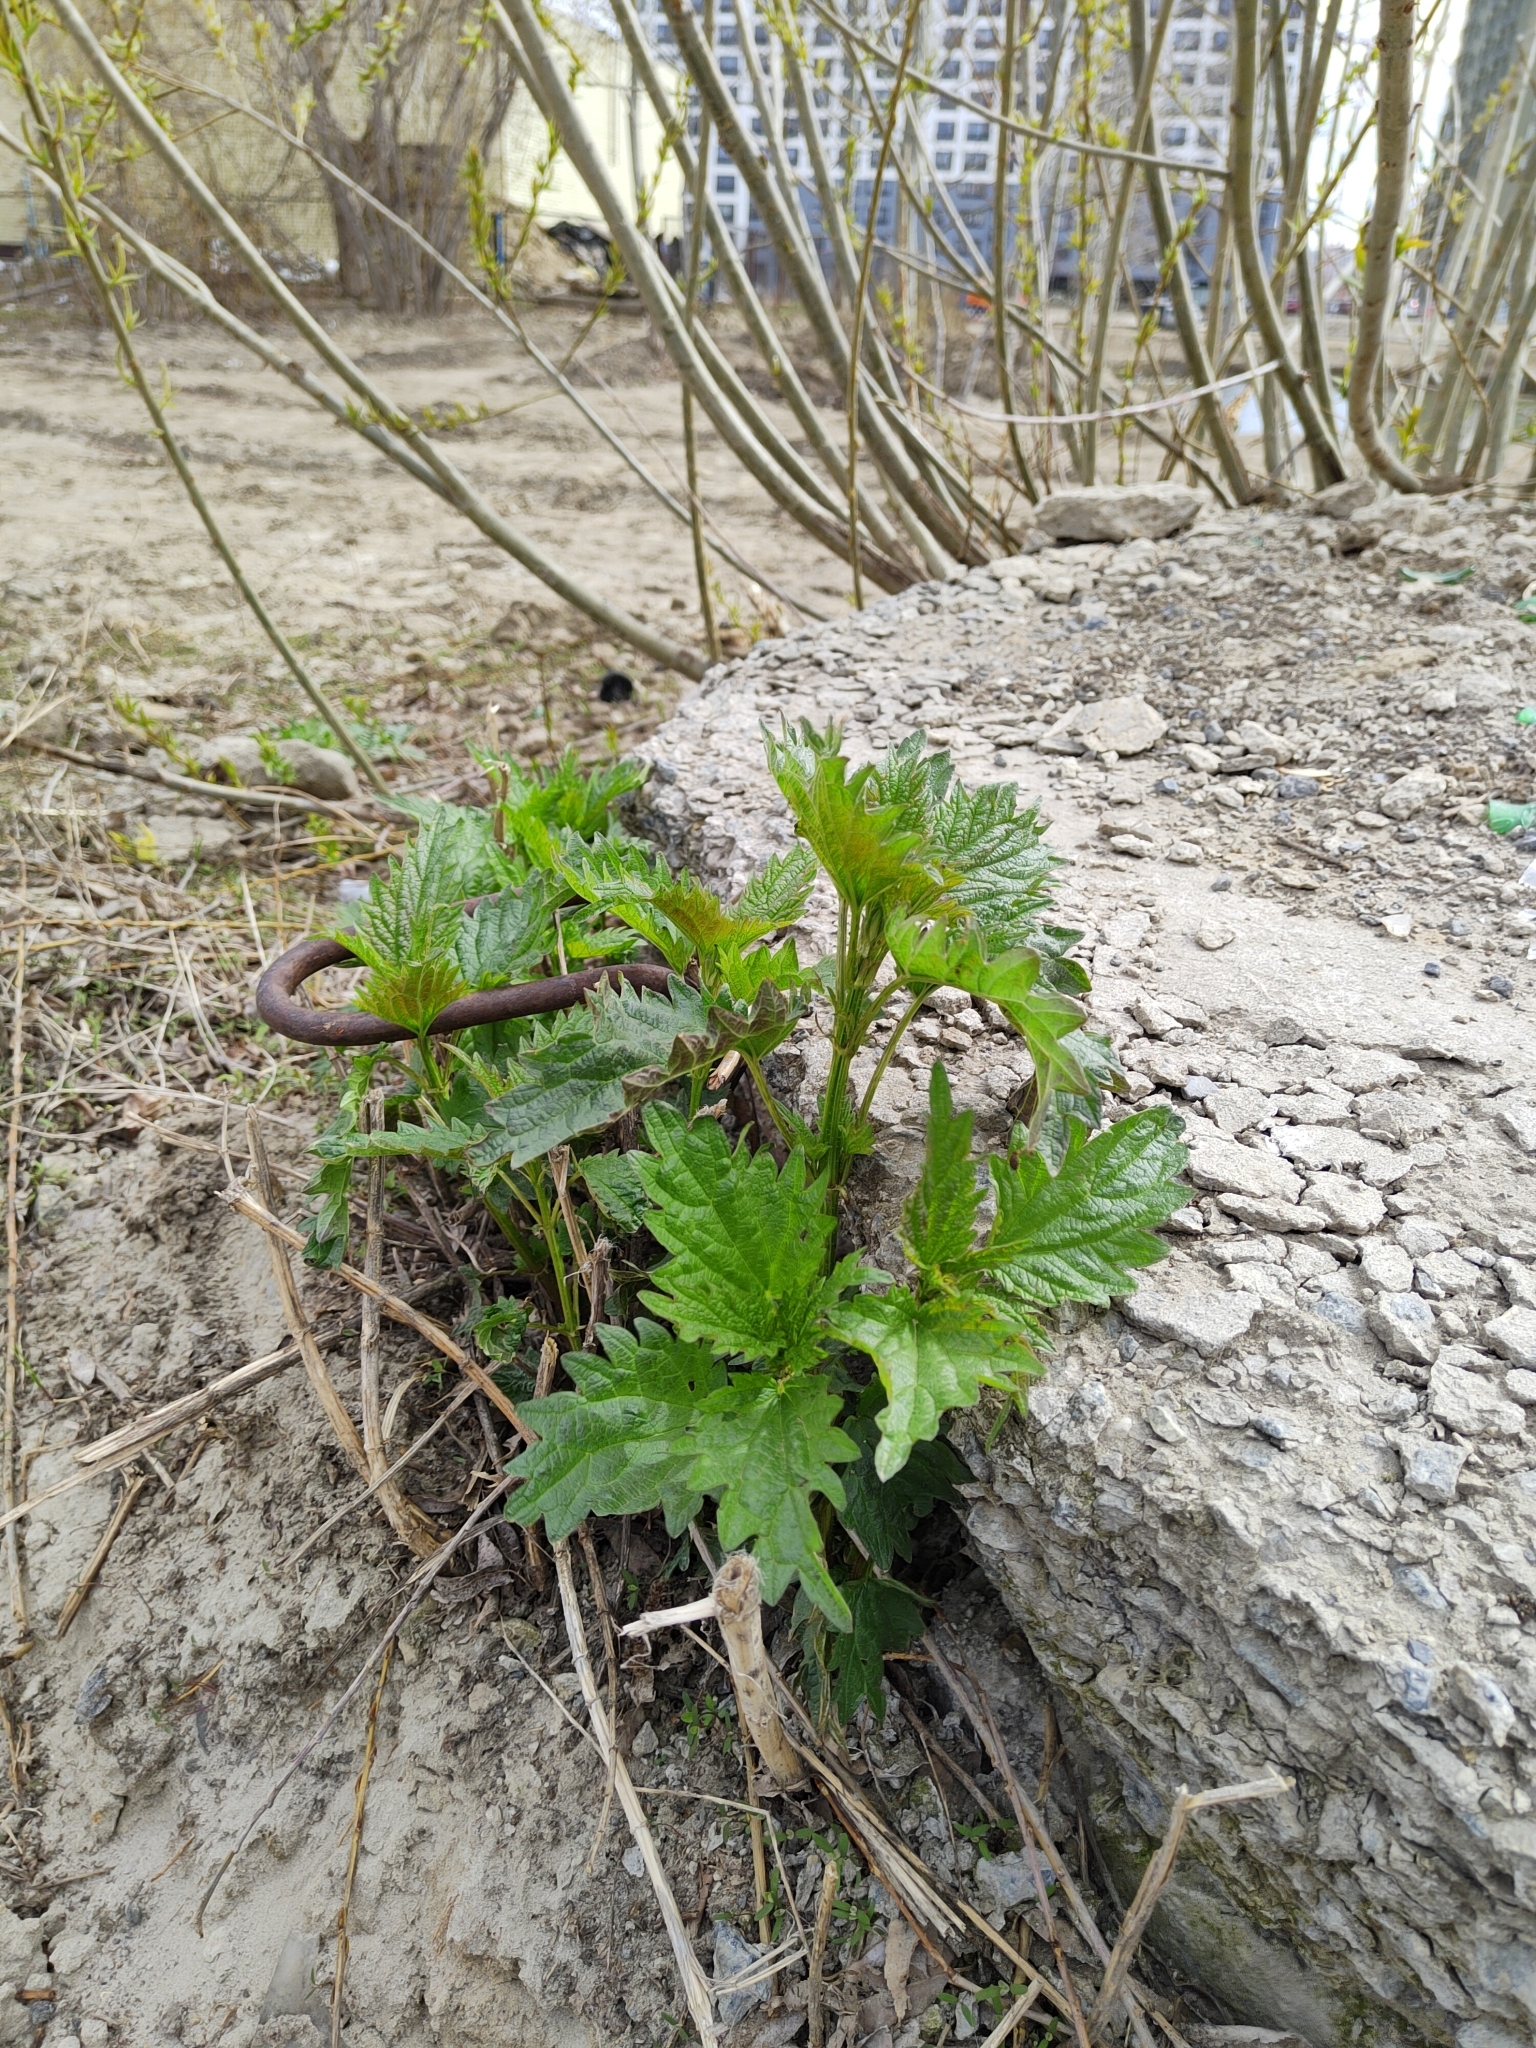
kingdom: Plantae
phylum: Tracheophyta
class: Magnoliopsida
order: Rosales
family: Urticaceae
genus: Urtica
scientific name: Urtica dioica
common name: Common nettle
